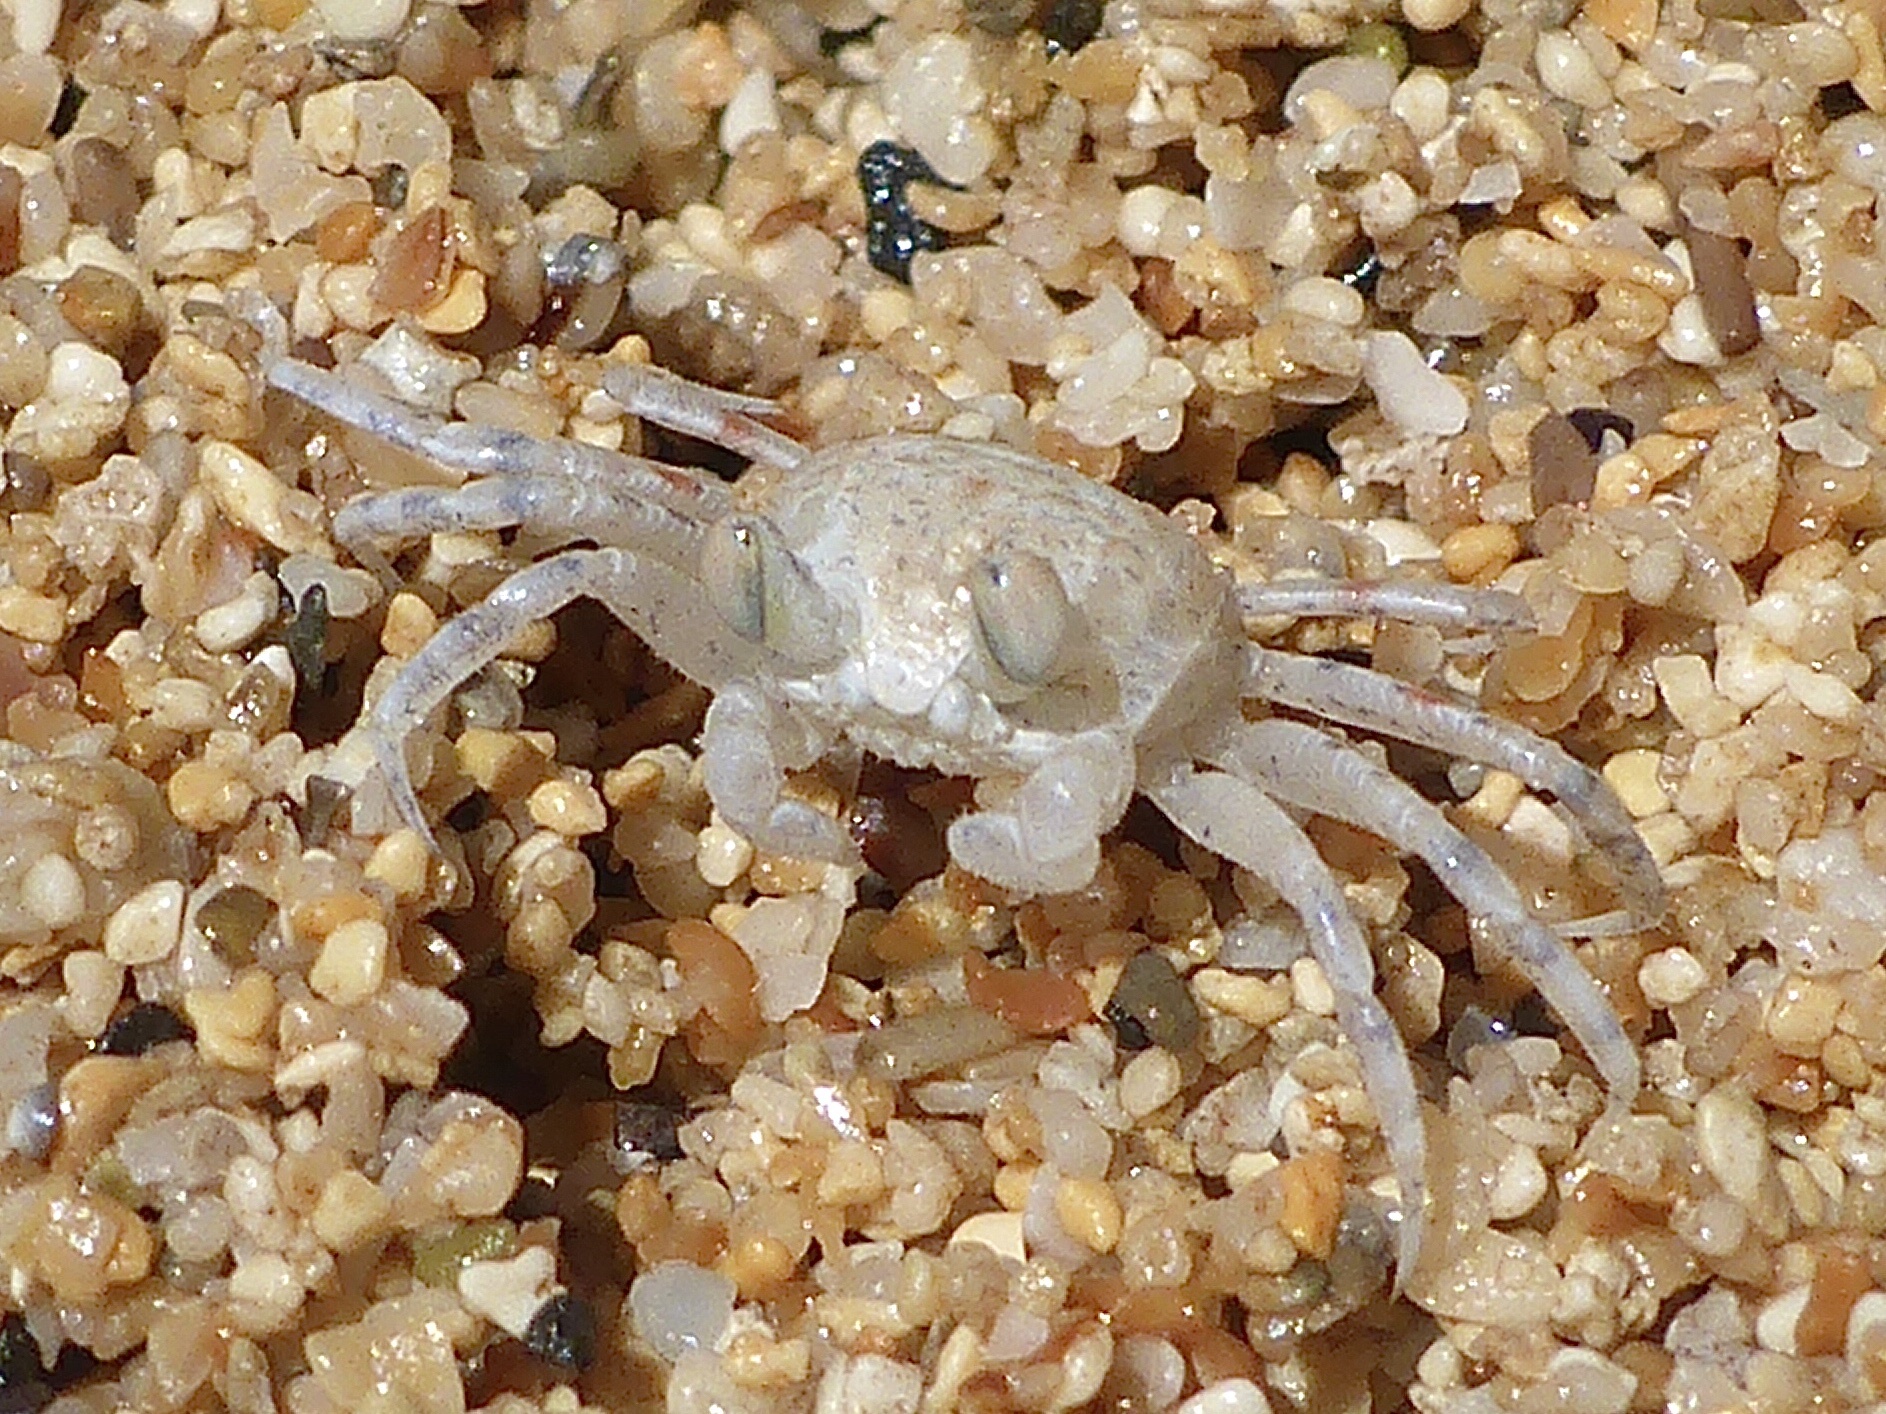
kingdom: Animalia
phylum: Arthropoda
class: Malacostraca
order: Decapoda
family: Ocypodidae
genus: Ocypode
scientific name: Ocypode pallidula
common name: Pallid ghost crab
